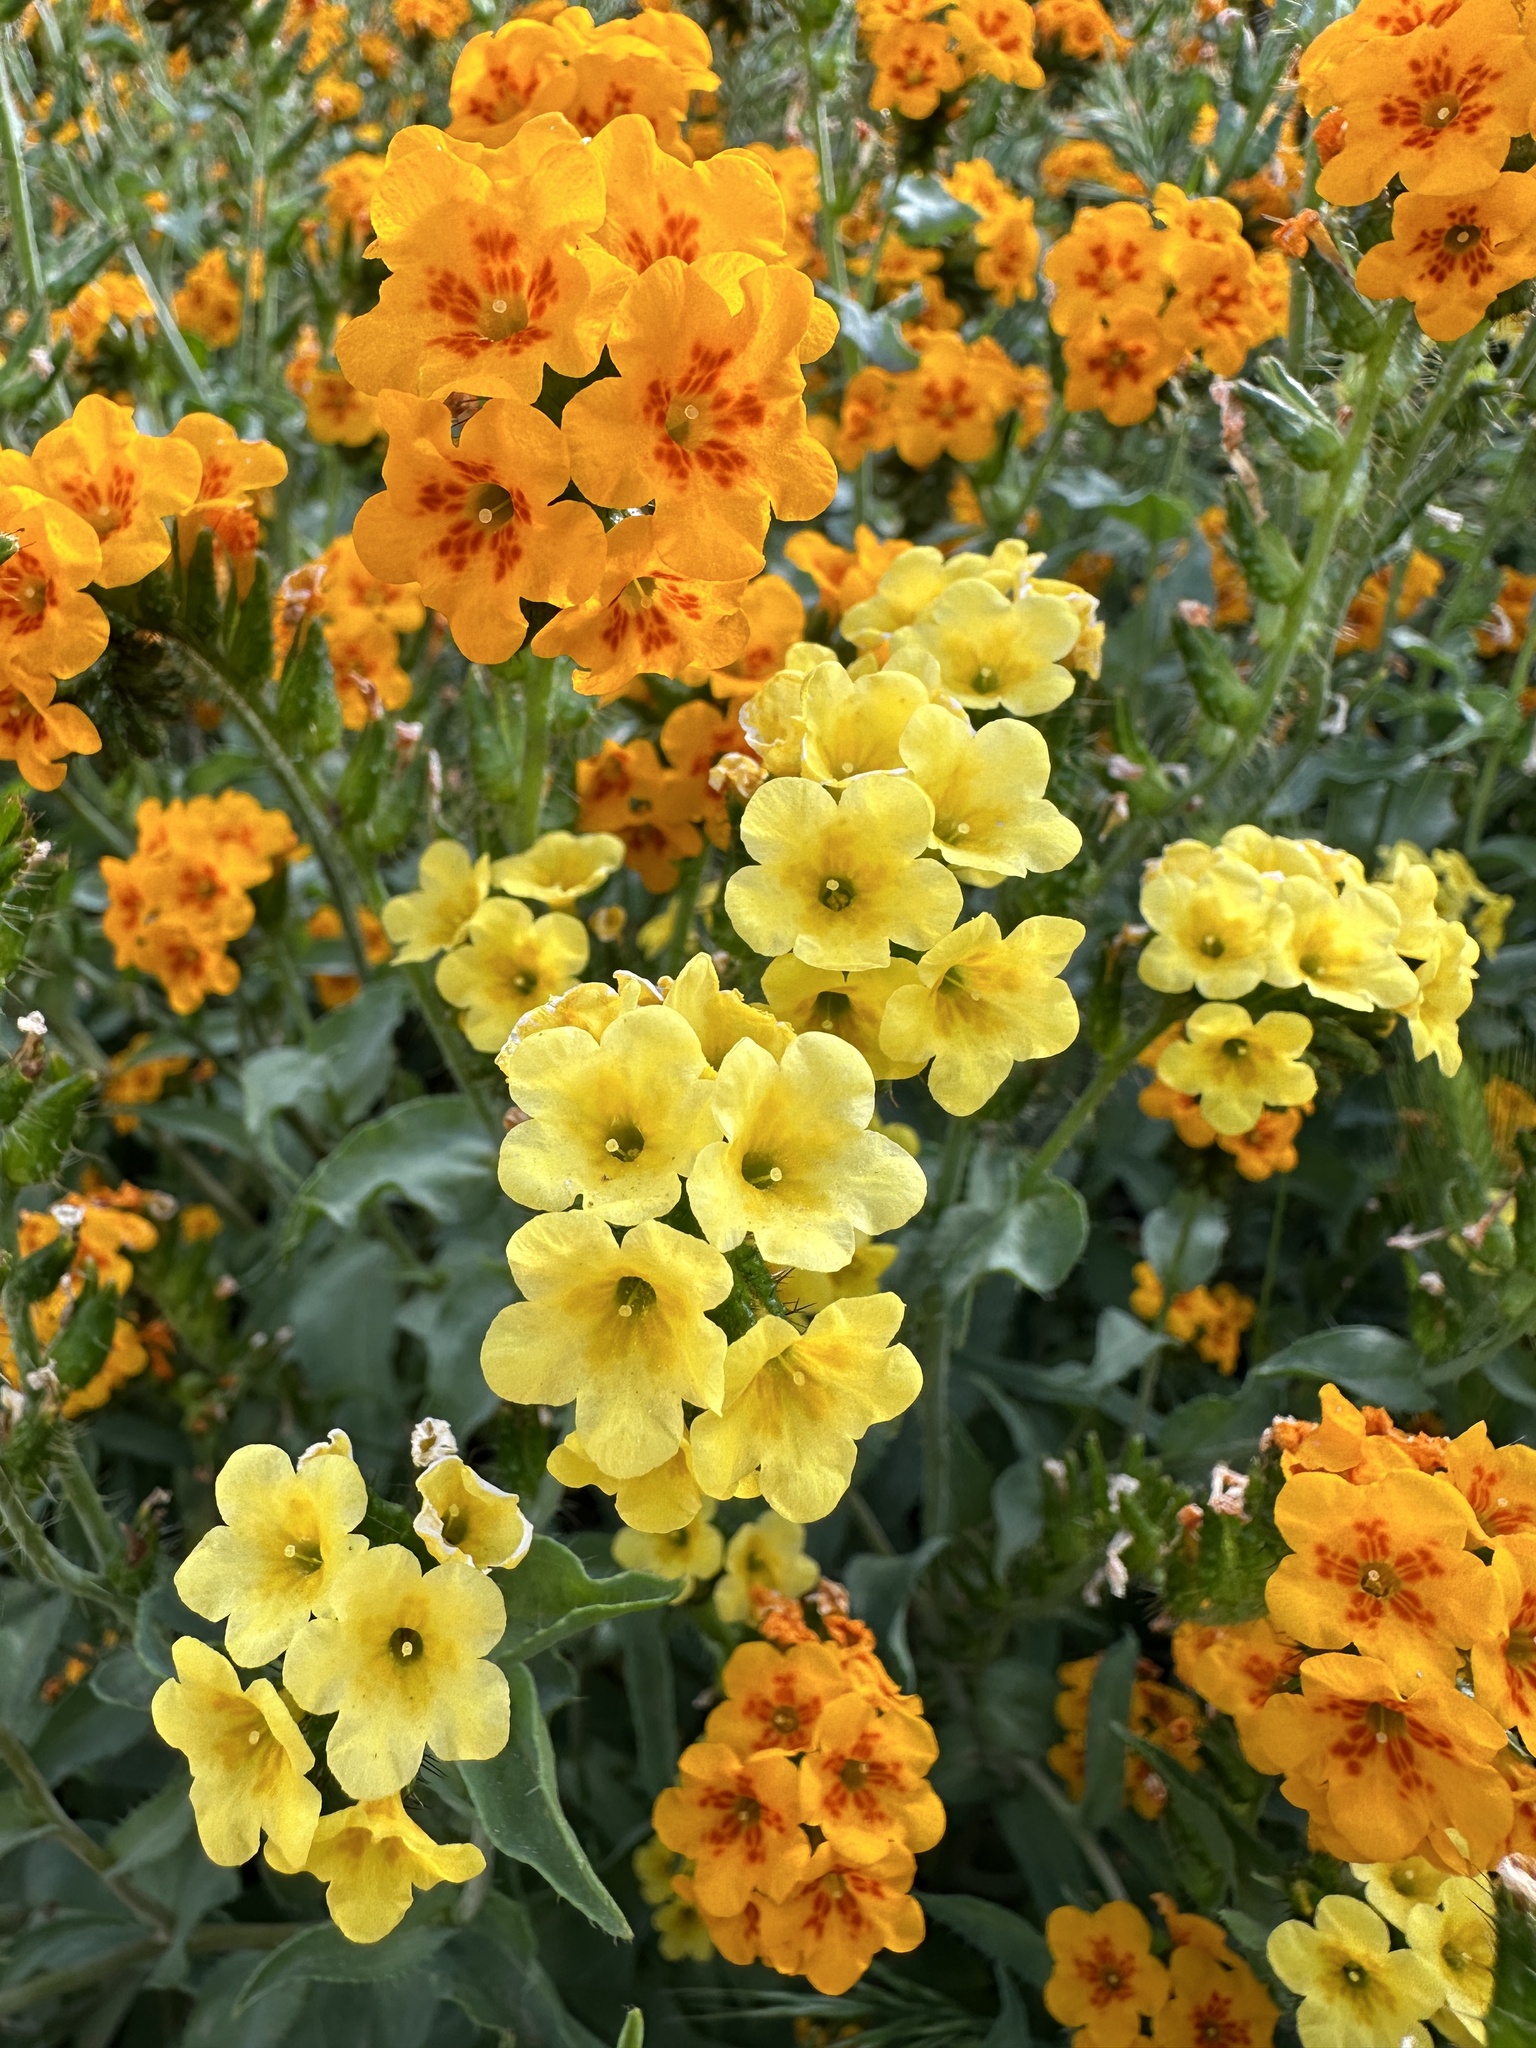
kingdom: Plantae
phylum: Tracheophyta
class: Magnoliopsida
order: Boraginales
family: Boraginaceae
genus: Amsinckia
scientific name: Amsinckia vernicosa
